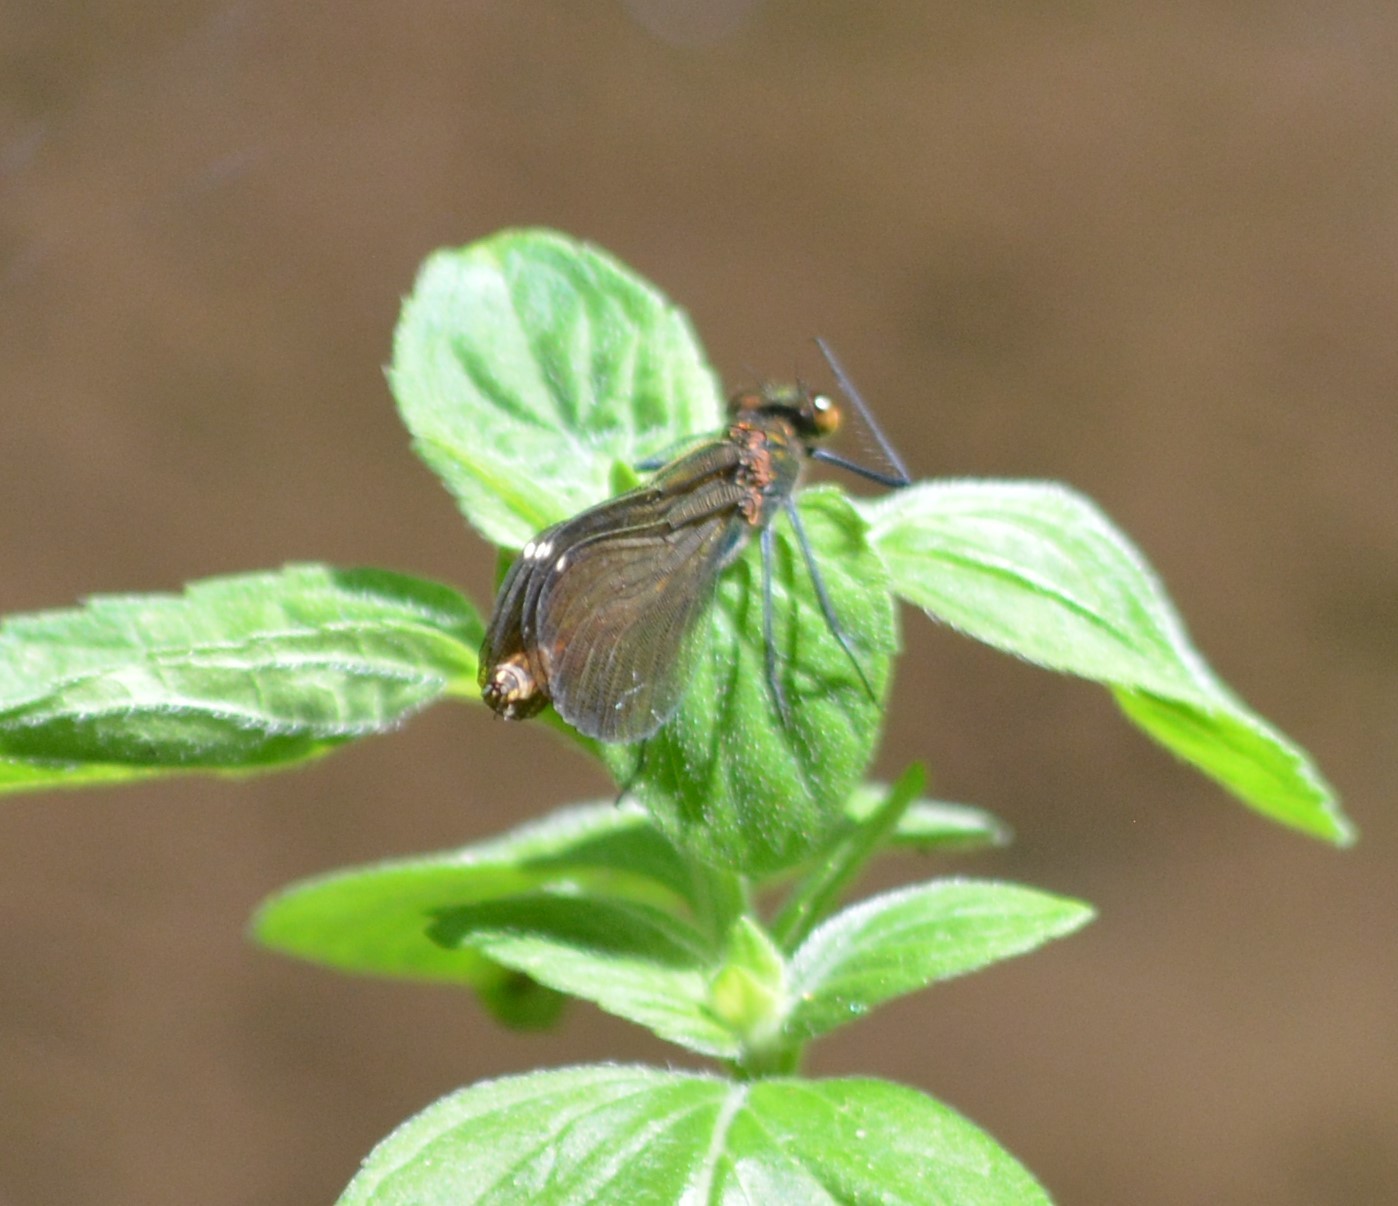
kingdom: Animalia
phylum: Arthropoda
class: Insecta
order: Odonata
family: Calopterygidae
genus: Calopteryx
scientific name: Calopteryx virgo
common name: Beautiful demoiselle
